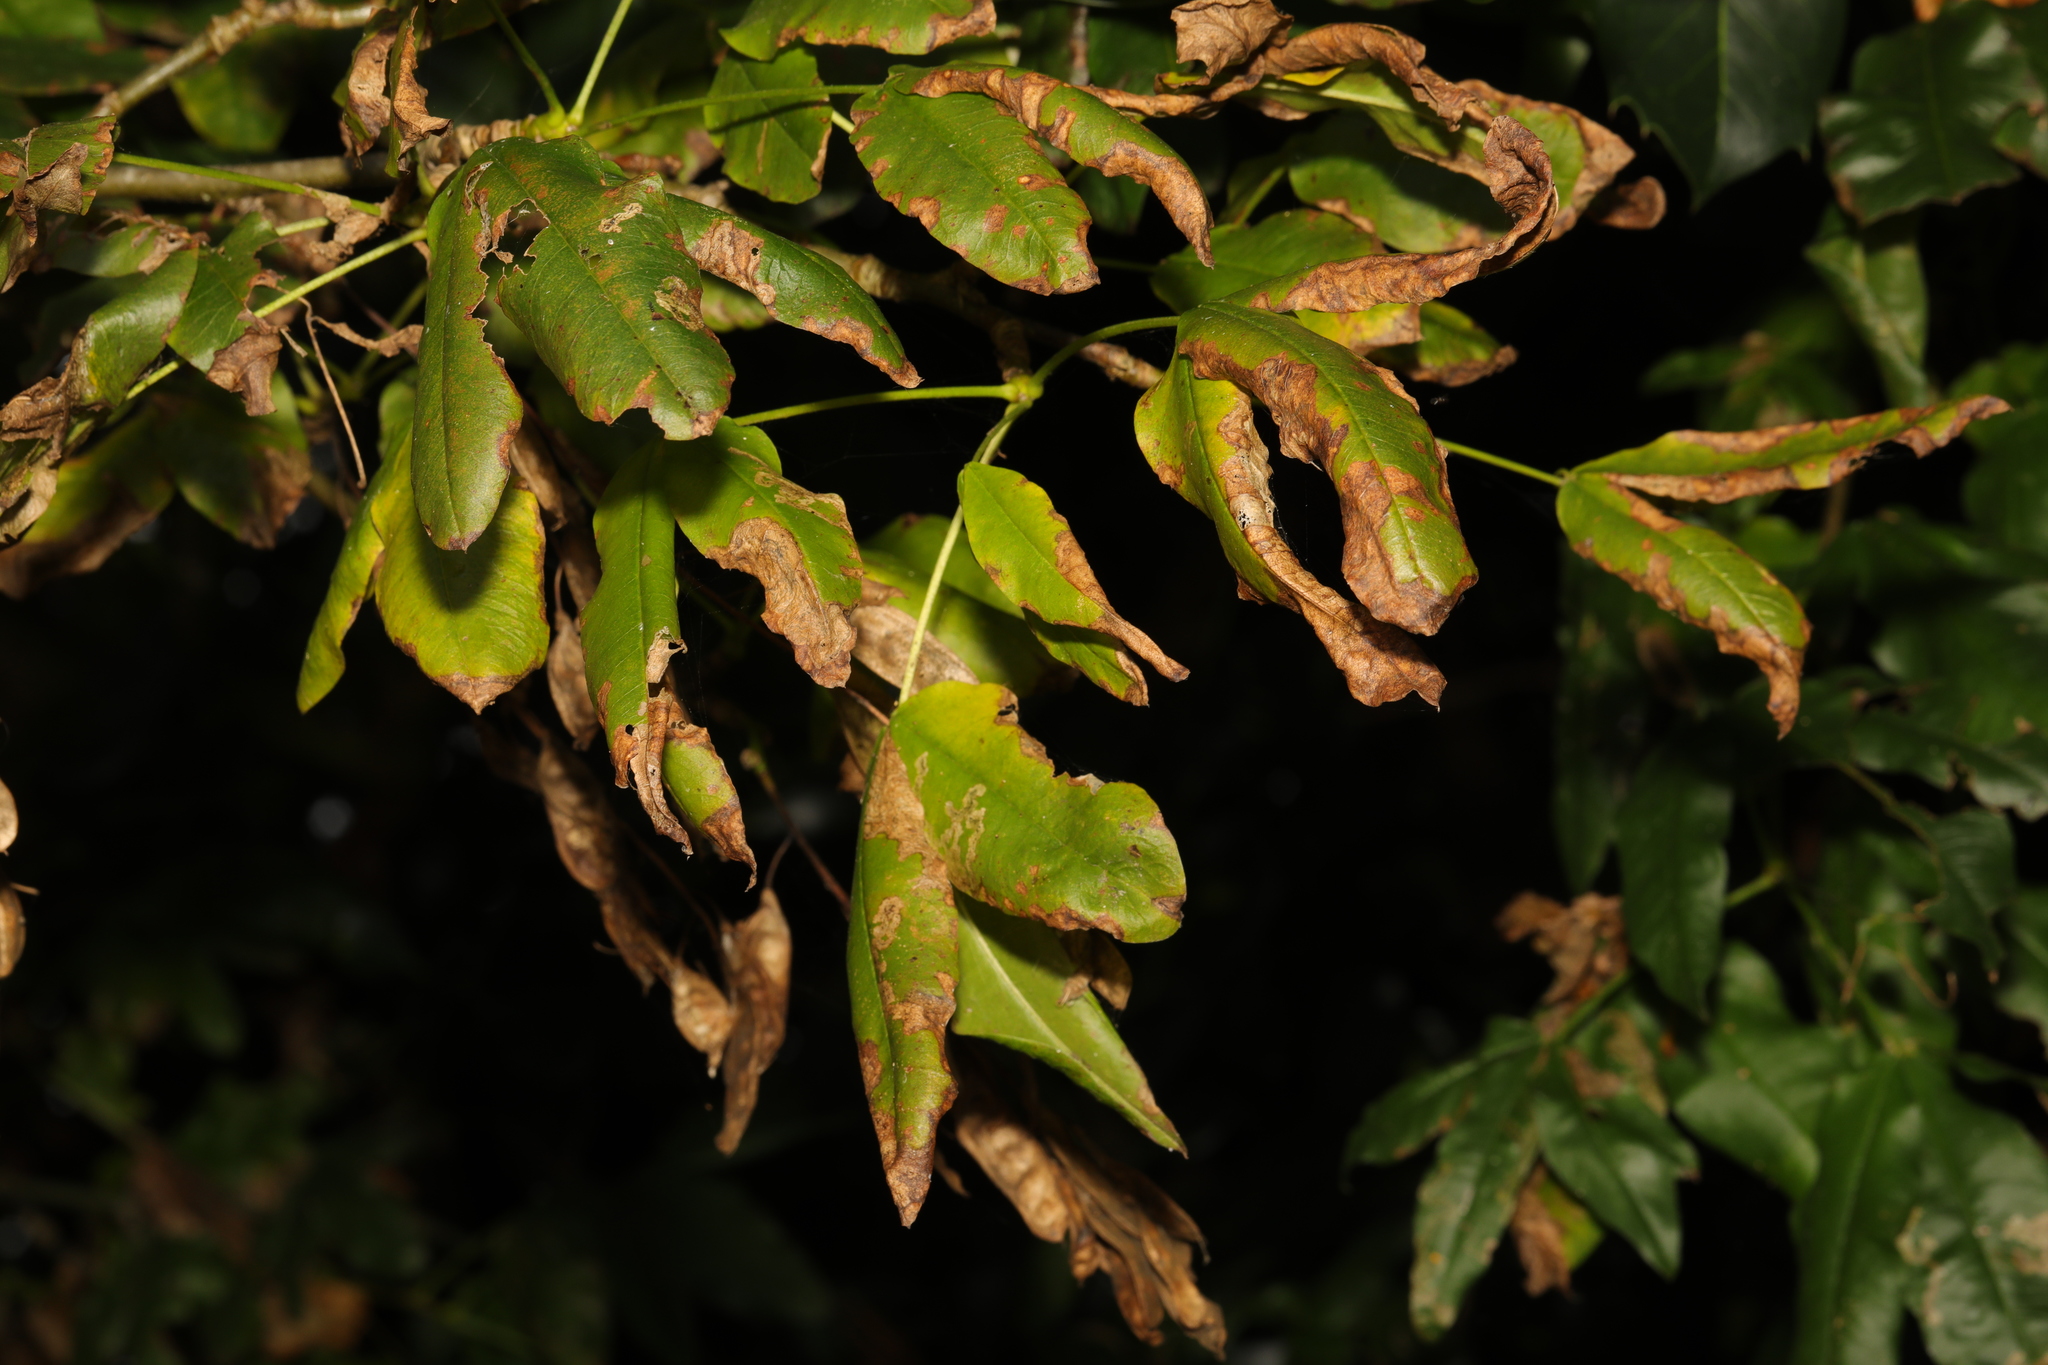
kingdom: Plantae
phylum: Tracheophyta
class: Magnoliopsida
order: Fabales
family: Fabaceae
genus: Laburnum
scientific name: Laburnum anagyroides
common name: Laburnum
